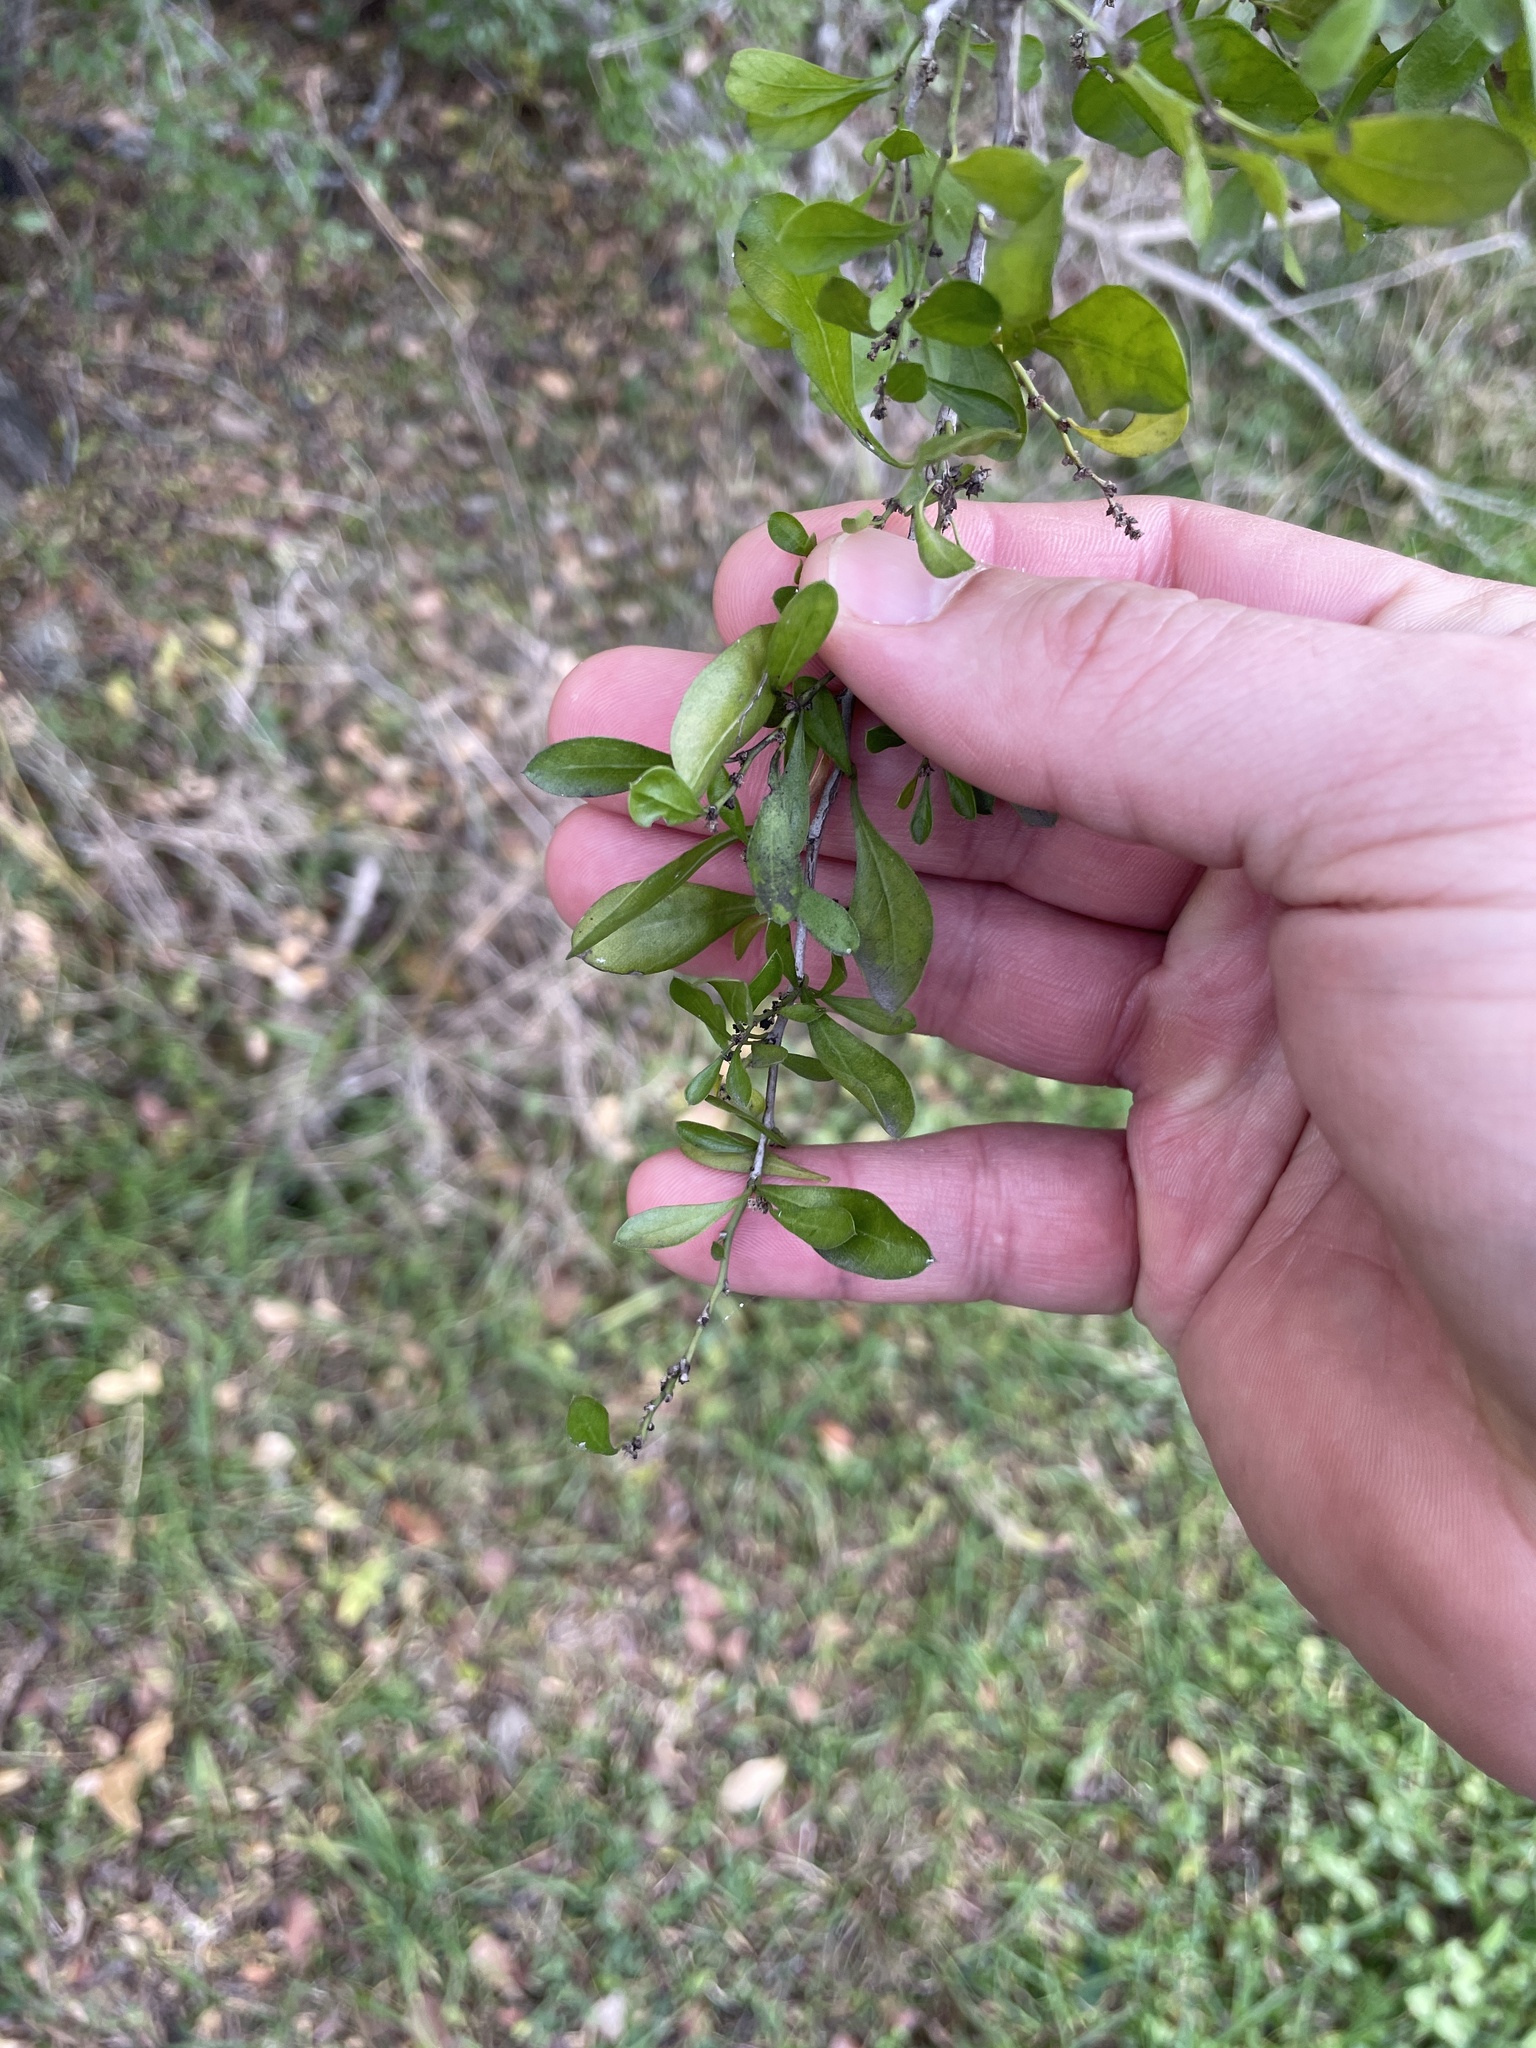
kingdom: Plantae
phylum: Tracheophyta
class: Magnoliopsida
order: Rosales
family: Rhamnaceae
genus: Condalia
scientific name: Condalia hookeri
